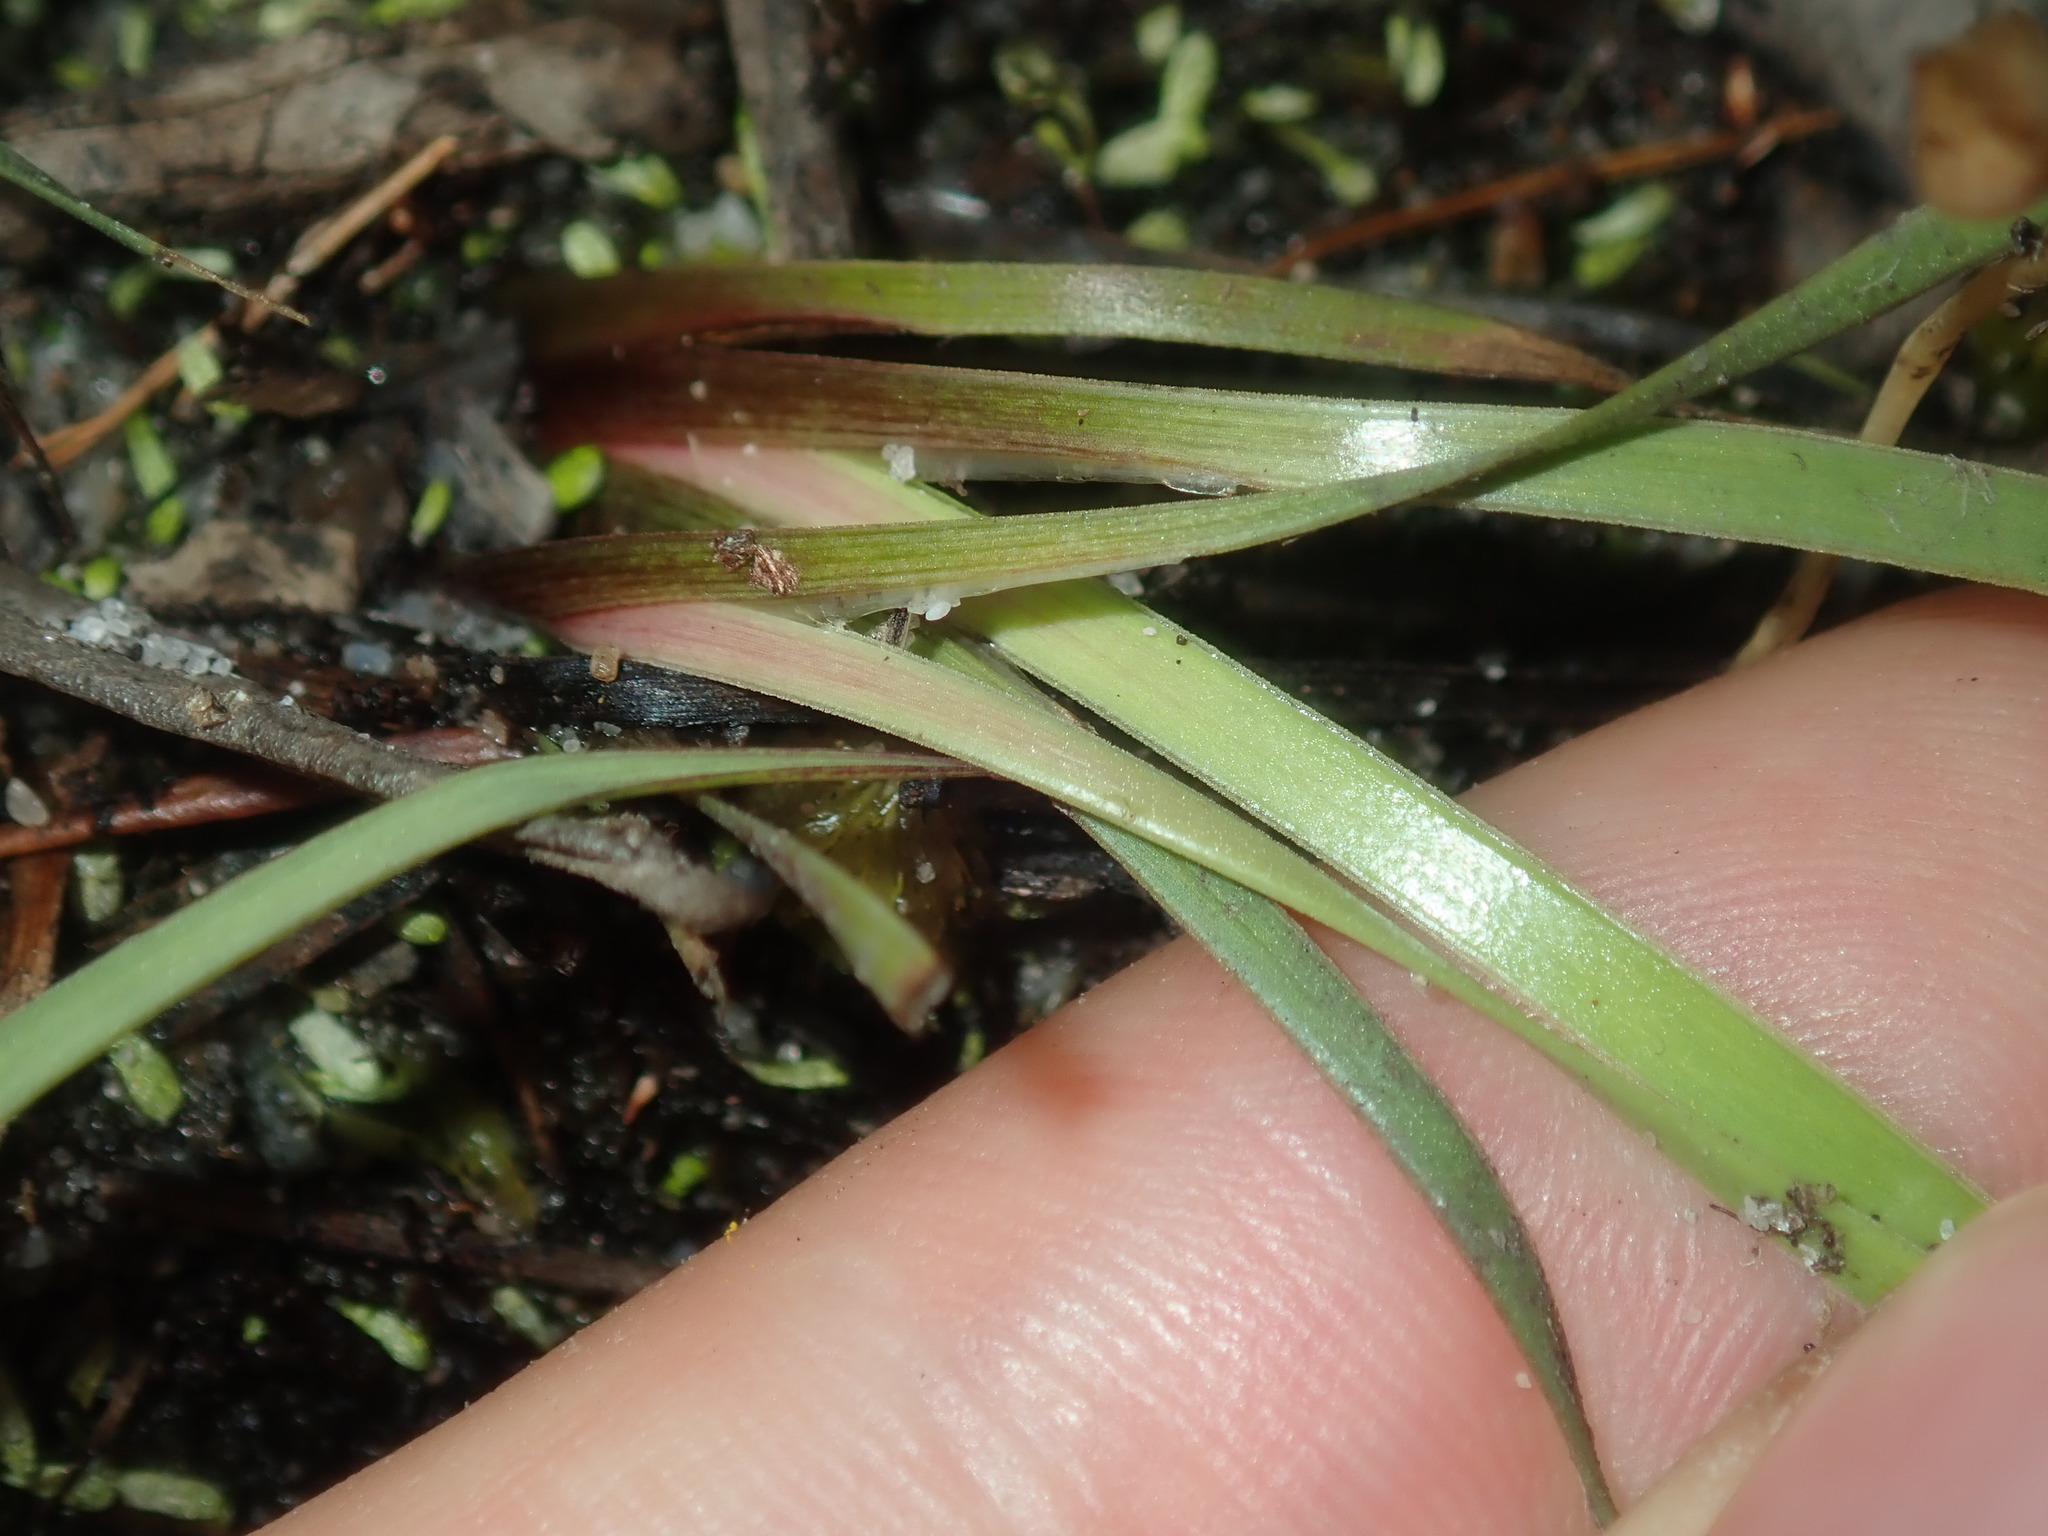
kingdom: Plantae
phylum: Tracheophyta
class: Liliopsida
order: Poales
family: Xyridaceae
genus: Xyris
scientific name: Xyris complanata
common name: Hawai'i yelloweyed grass
